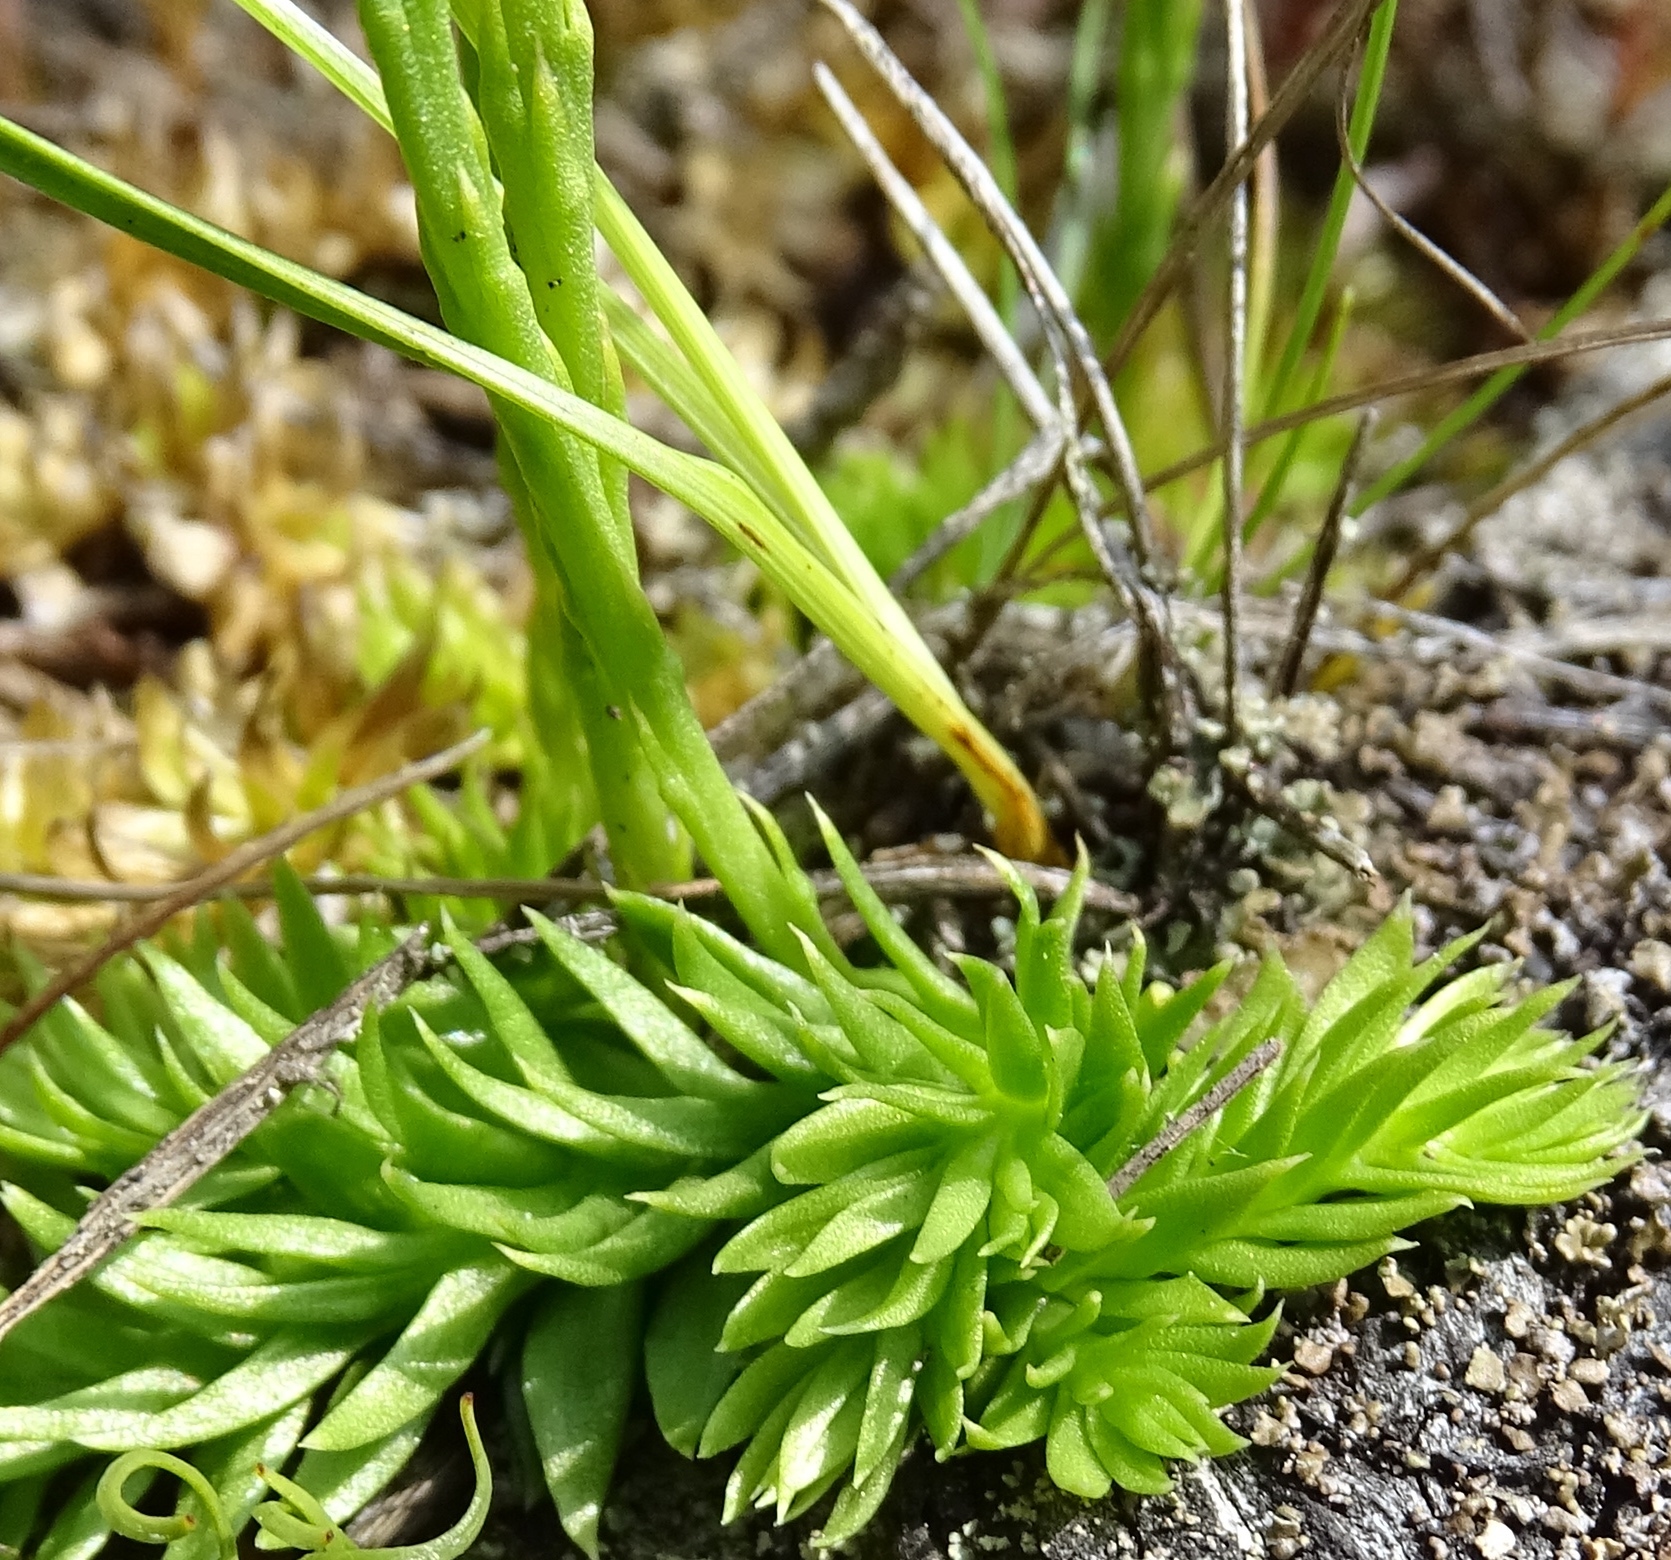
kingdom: Plantae
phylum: Tracheophyta
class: Lycopodiopsida
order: Lycopodiales
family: Lycopodiaceae
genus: Pseudolycopodiella
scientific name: Pseudolycopodiella caroliniana
